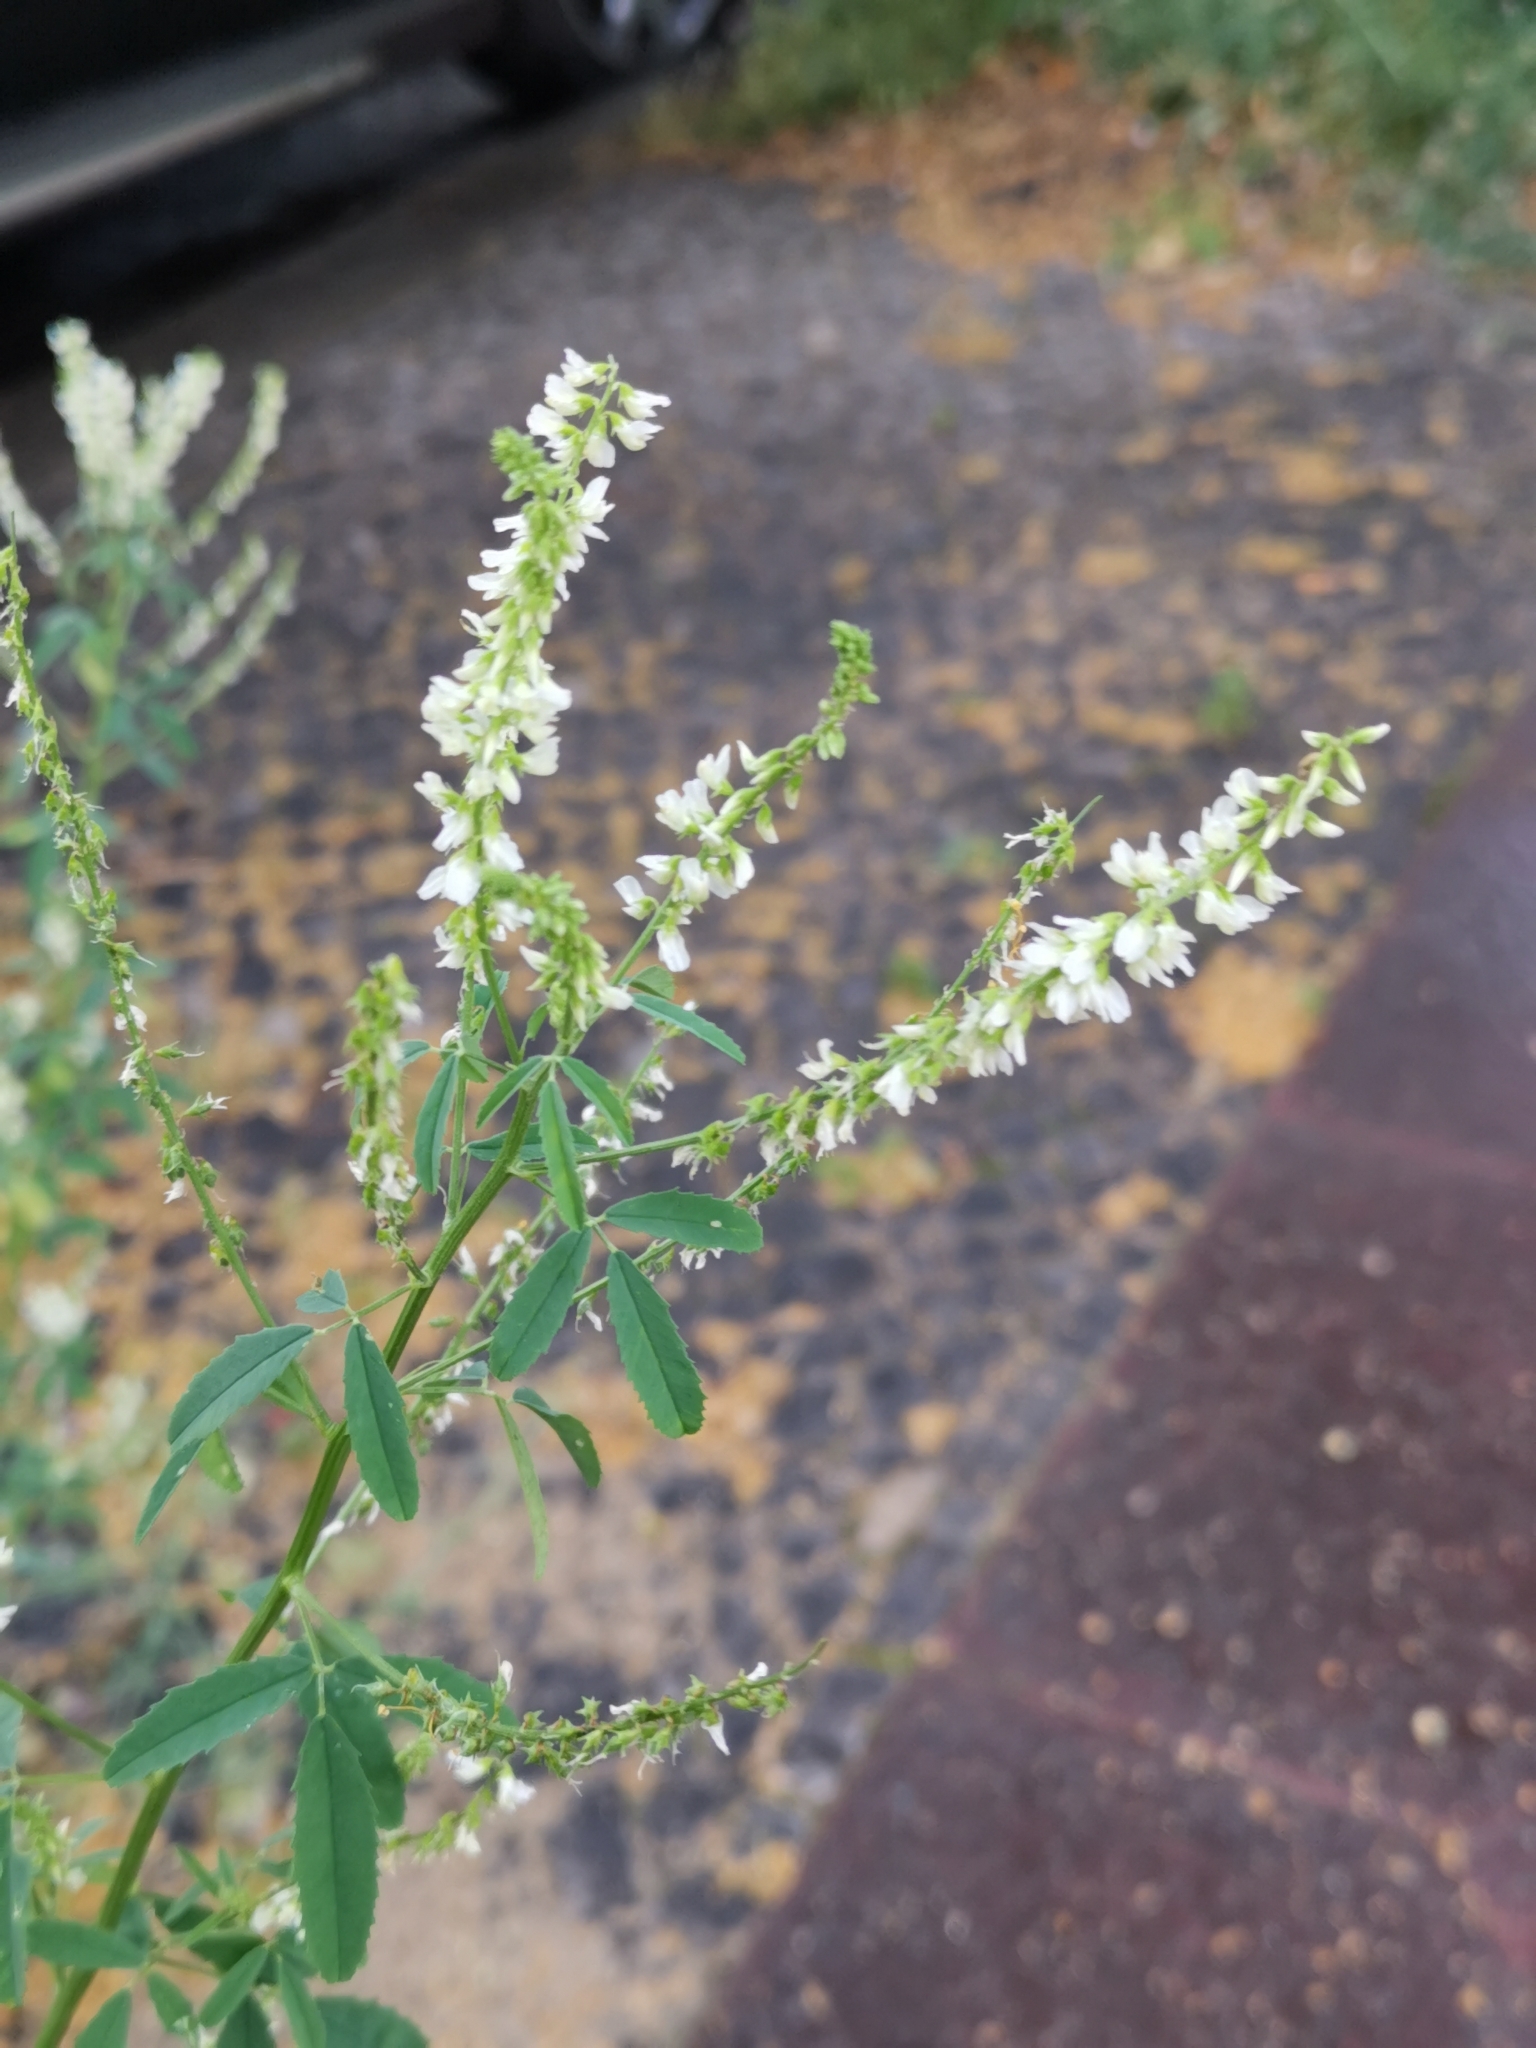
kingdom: Plantae
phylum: Tracheophyta
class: Magnoliopsida
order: Fabales
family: Fabaceae
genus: Melilotus
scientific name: Melilotus albus
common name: White melilot
